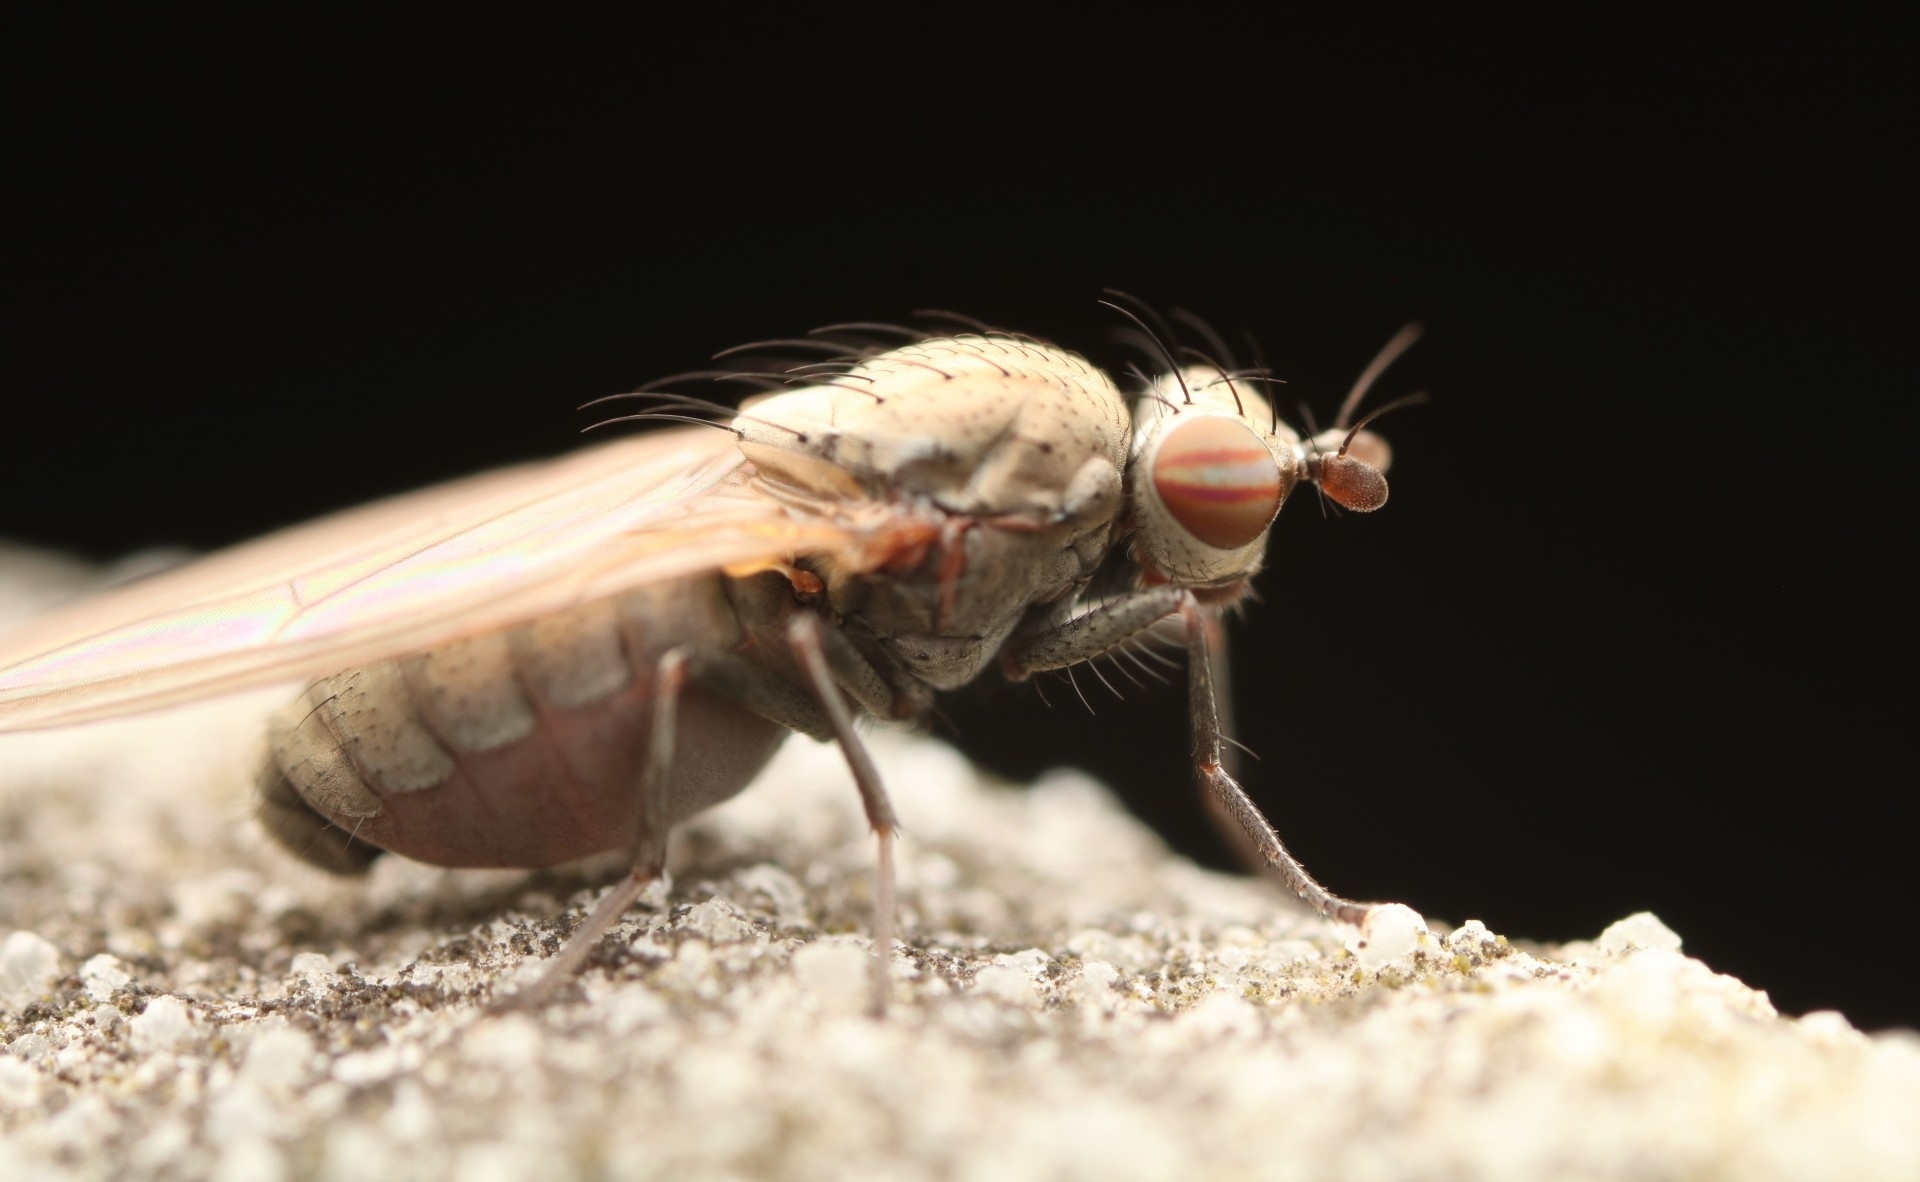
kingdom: Animalia
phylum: Arthropoda
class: Insecta
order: Diptera
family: Lauxaniidae
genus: Sapromyza
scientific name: Sapromyza brachysoma
